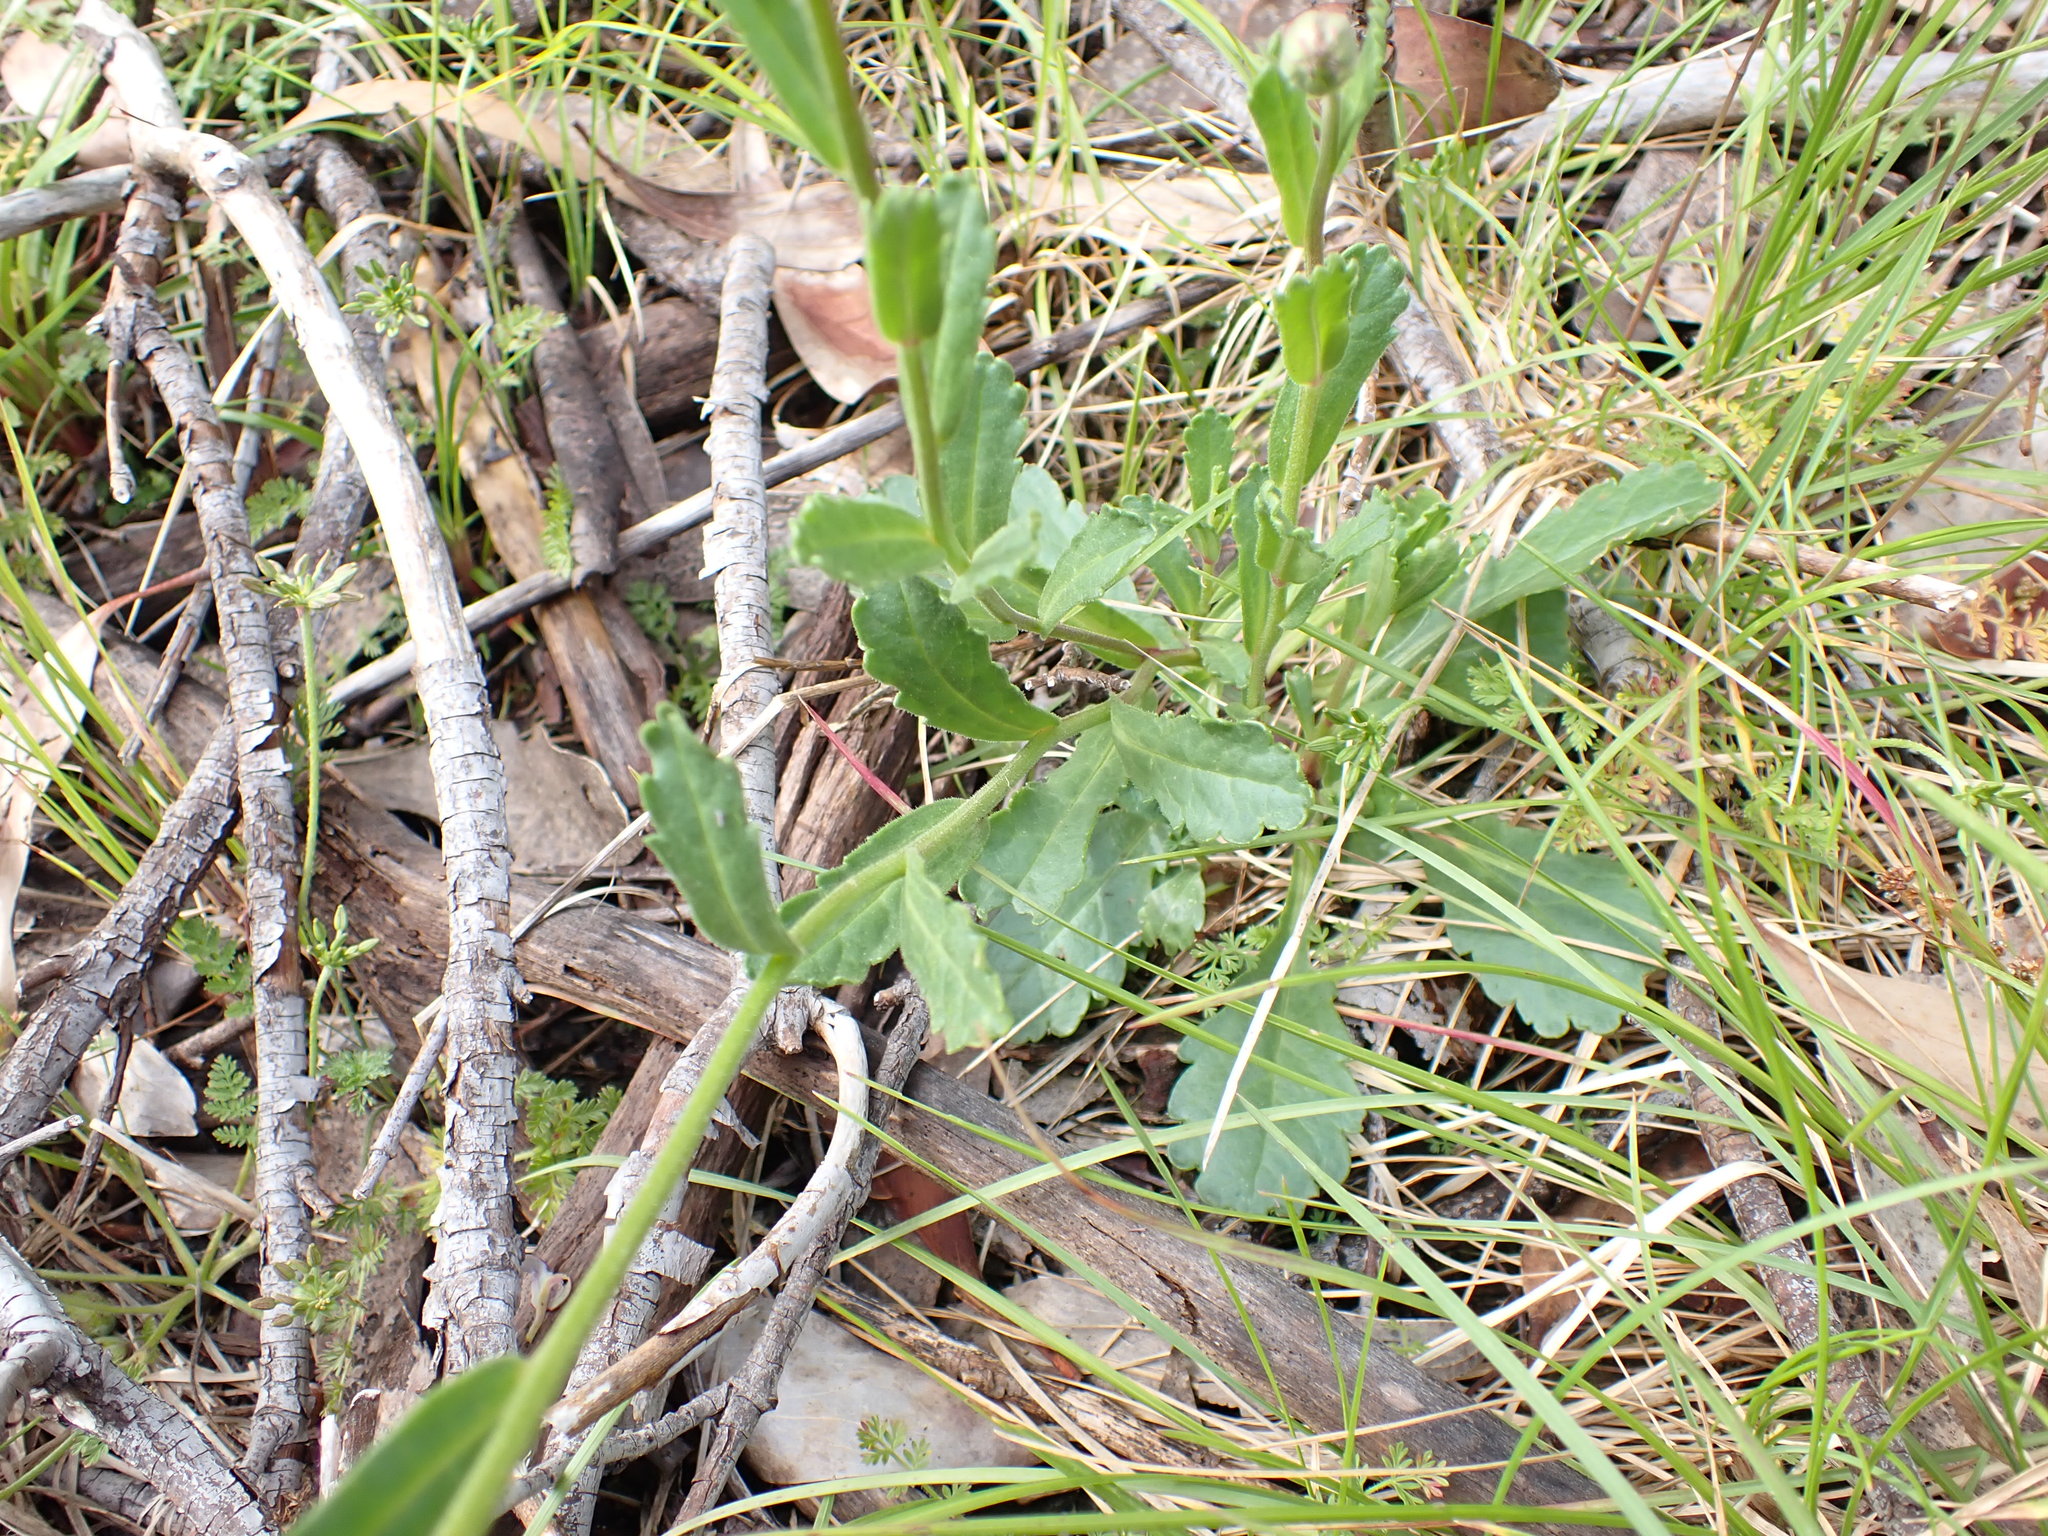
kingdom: Plantae
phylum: Tracheophyta
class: Magnoliopsida
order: Asterales
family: Asteraceae
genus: Brachyscome
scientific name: Brachyscome spathulata
